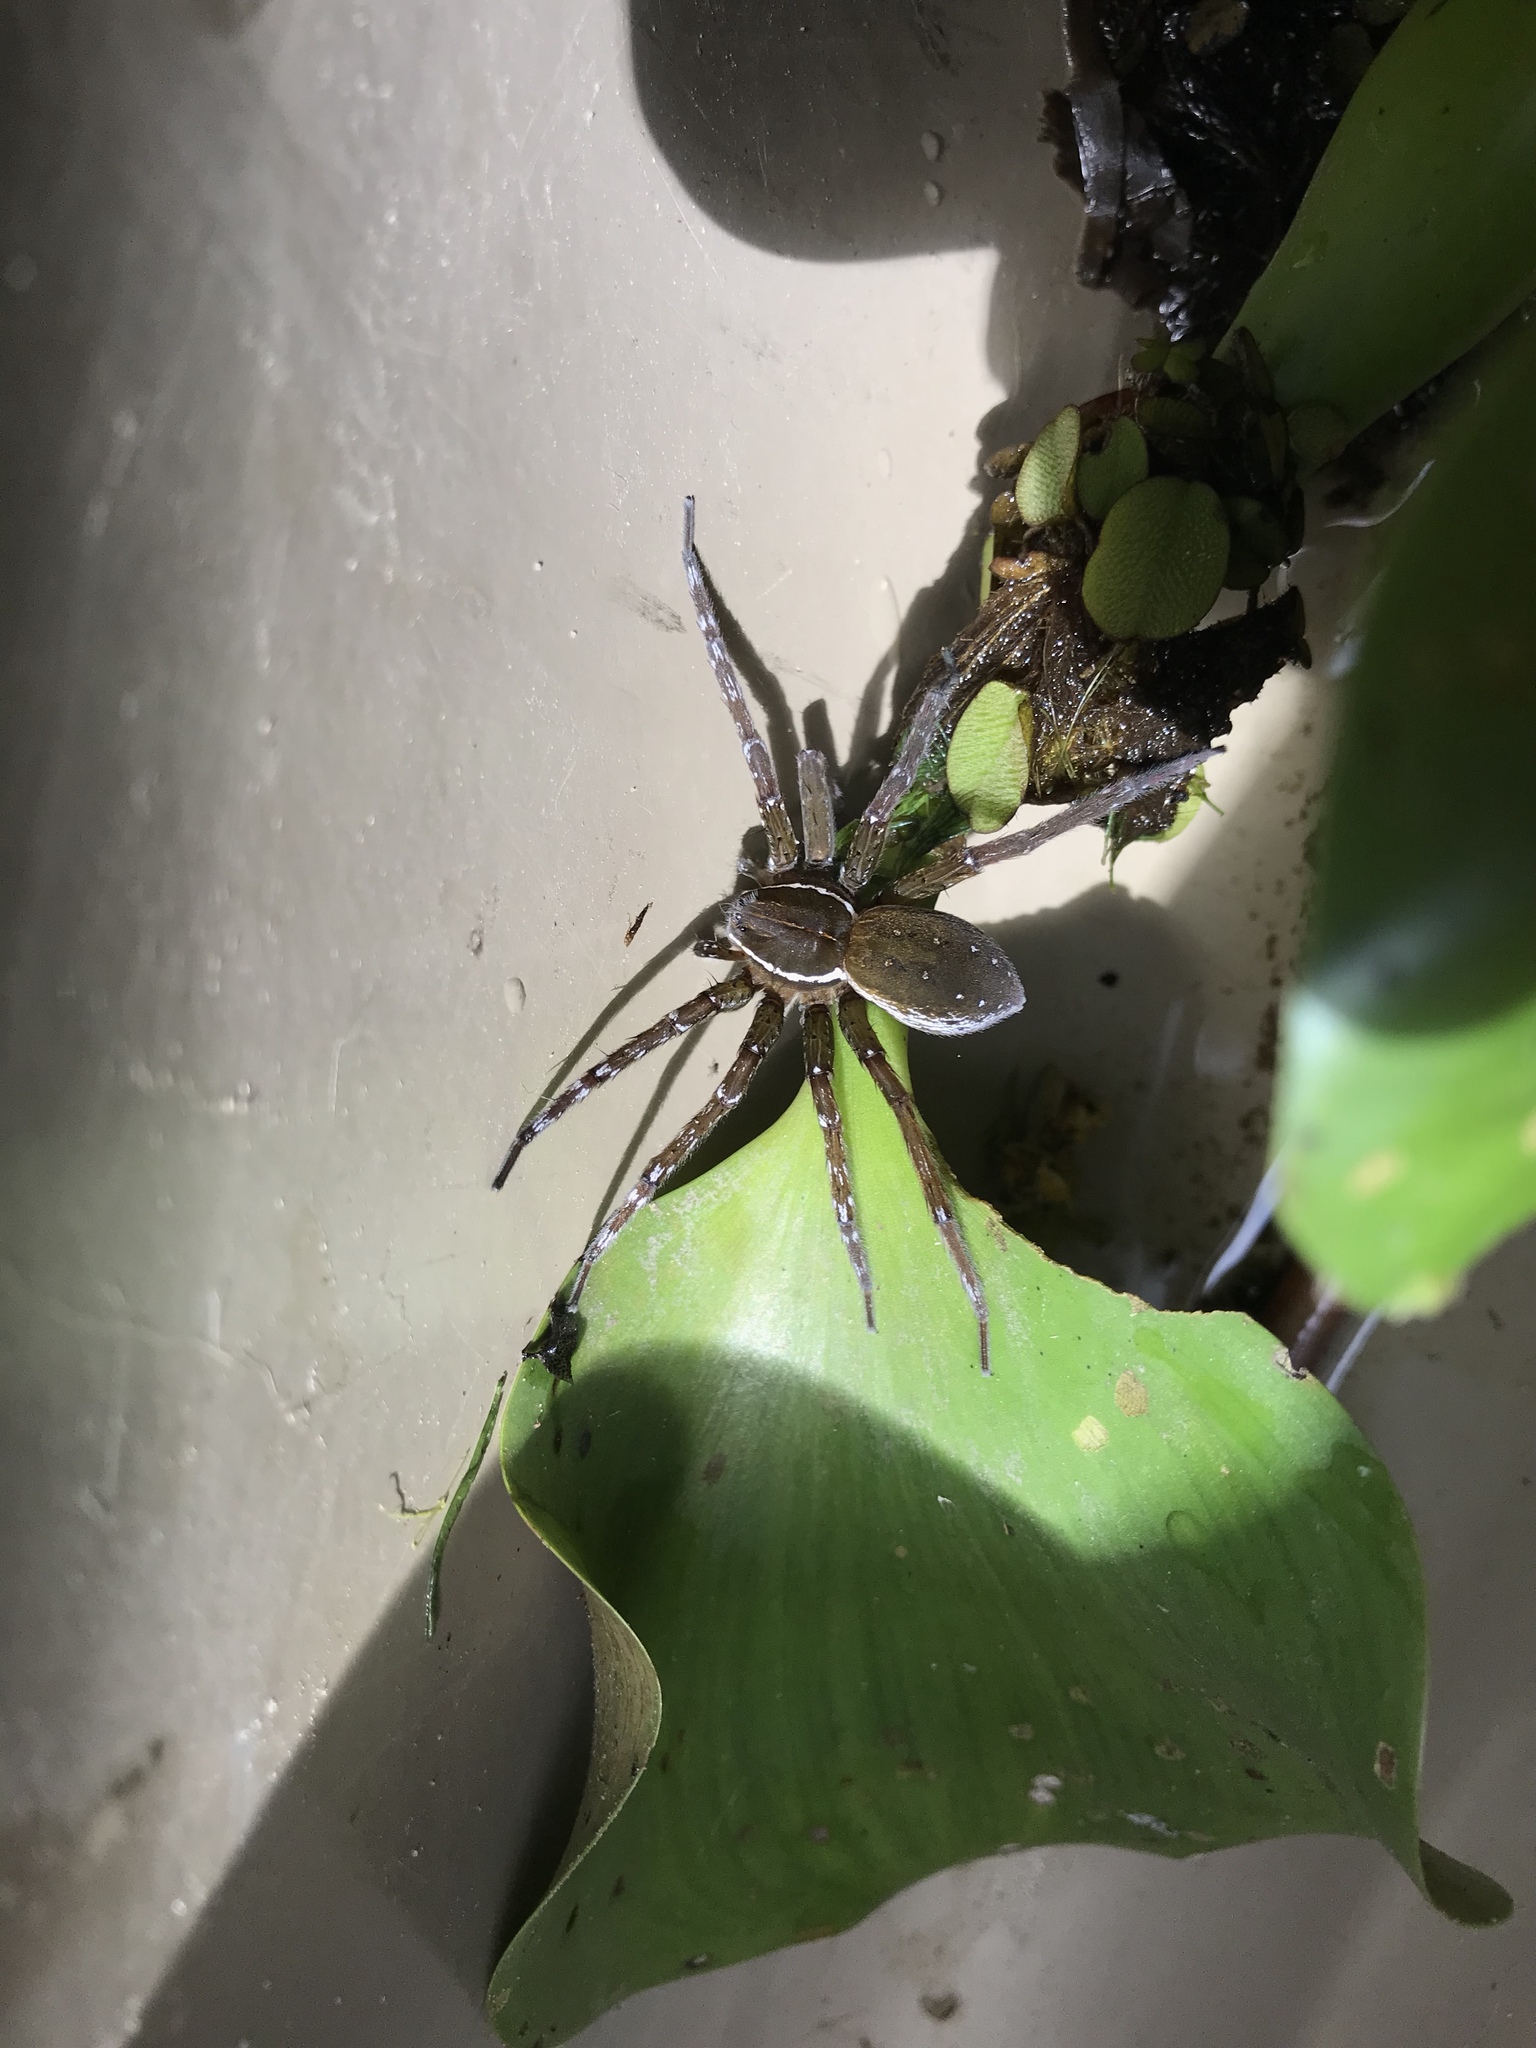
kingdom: Animalia
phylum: Arthropoda
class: Arachnida
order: Araneae
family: Pisauridae
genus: Dolomedes
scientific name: Dolomedes triton
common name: Six-spotted fishing spider
